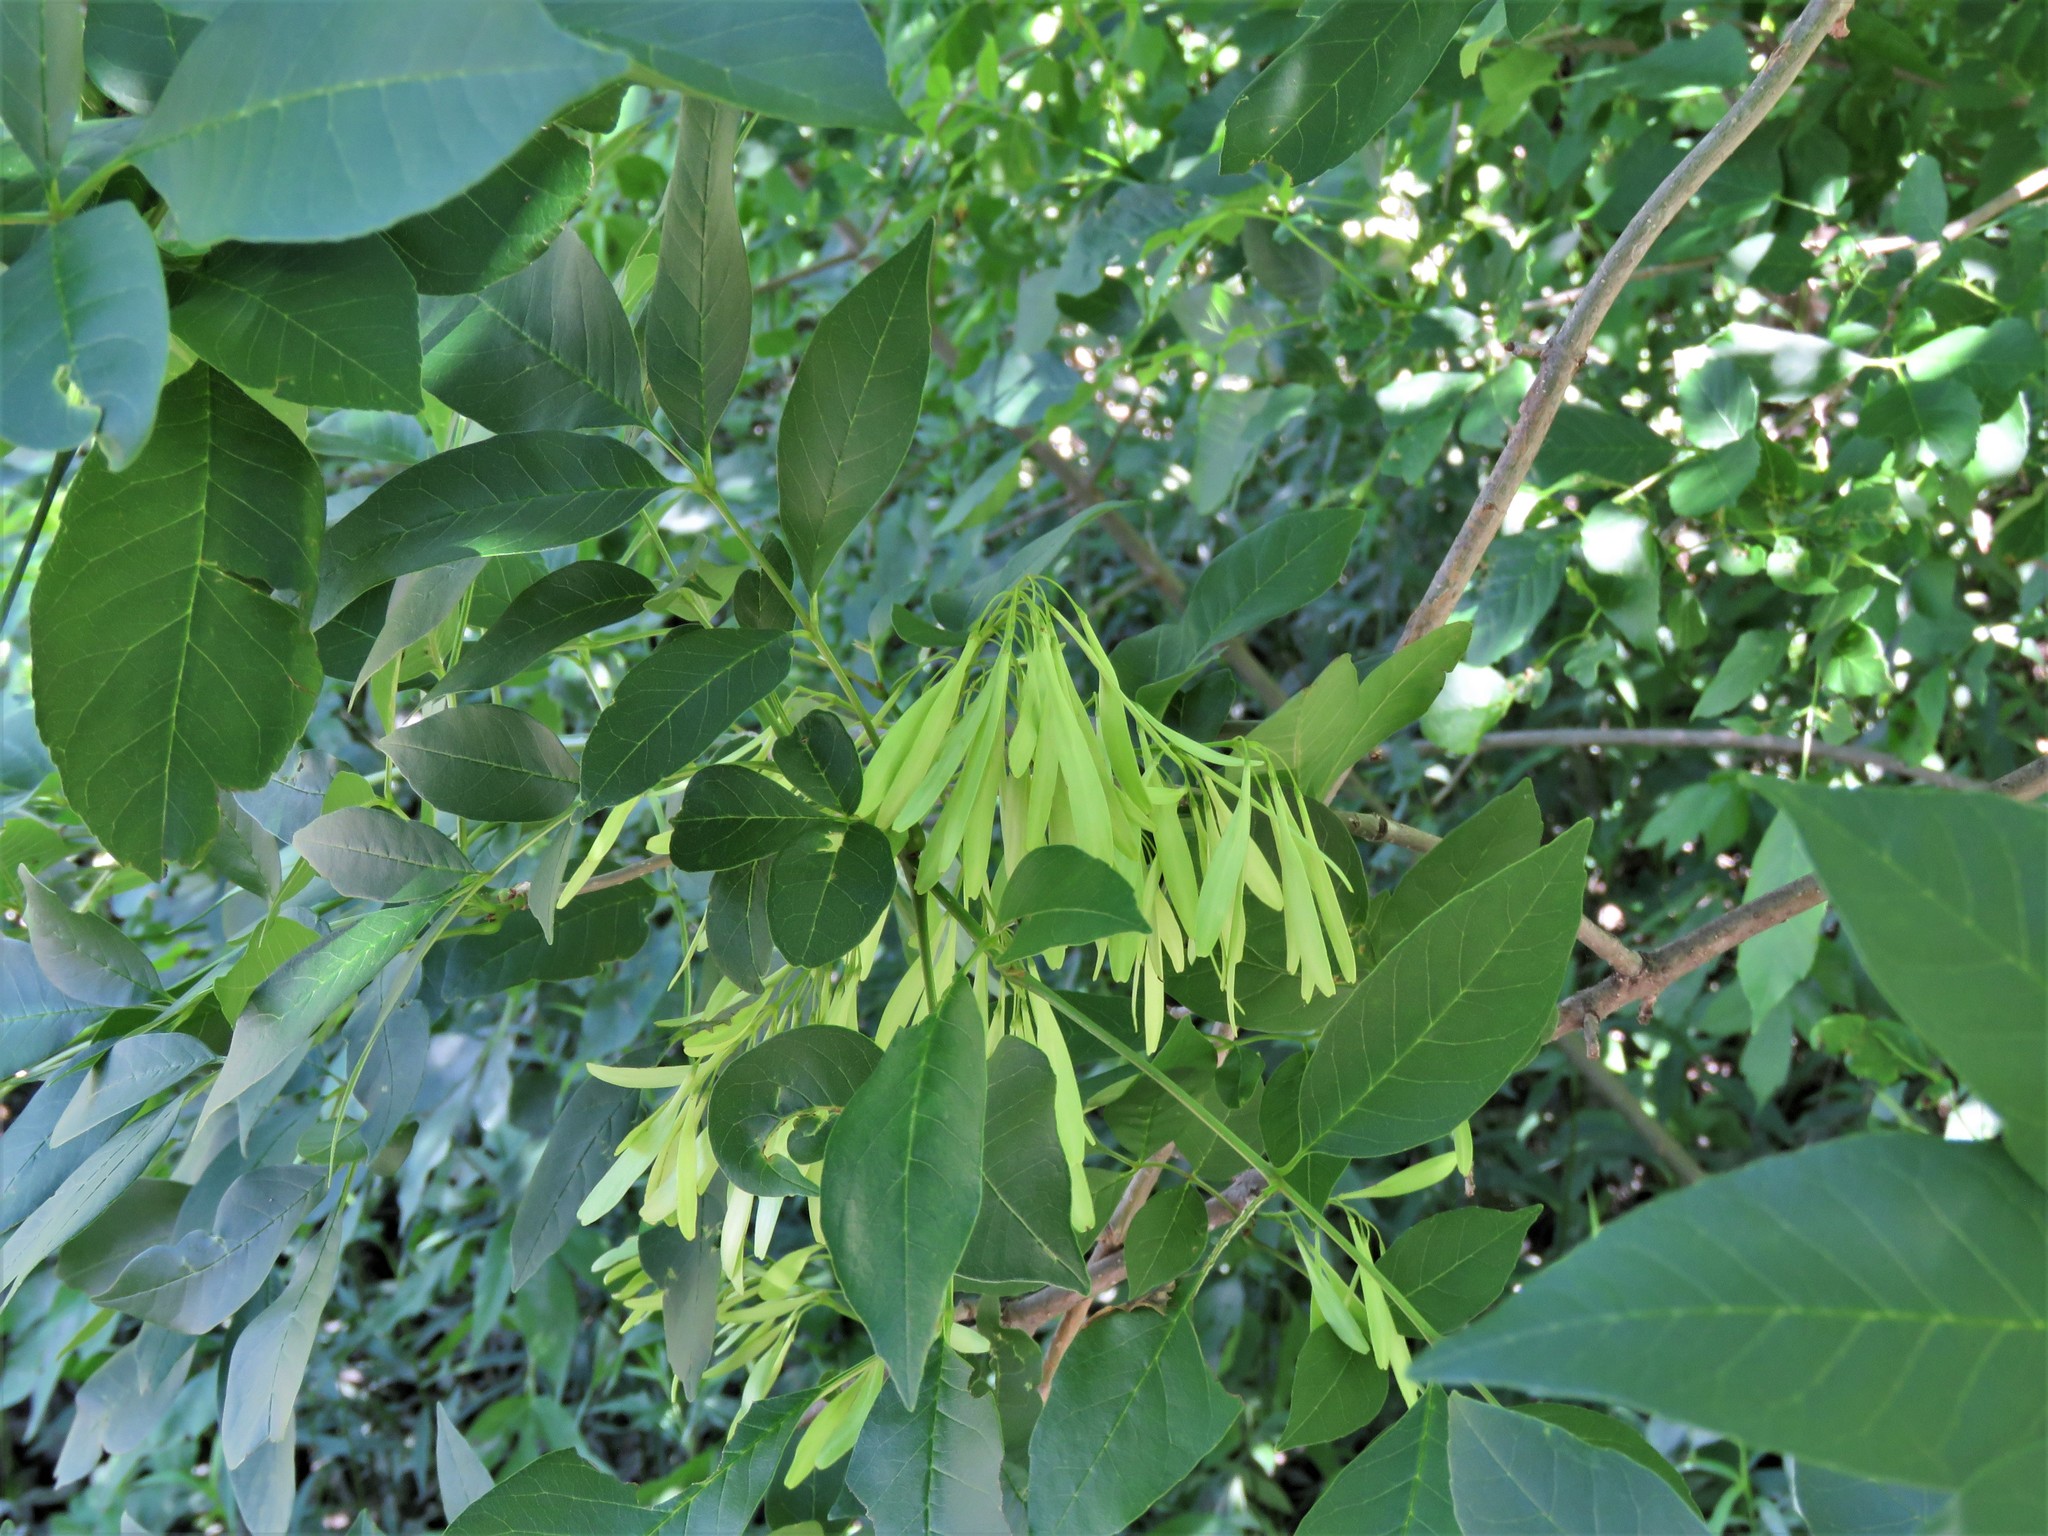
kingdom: Plantae
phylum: Tracheophyta
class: Magnoliopsida
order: Lamiales
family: Oleaceae
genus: Fraxinus
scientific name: Fraxinus pennsylvanica
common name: Green ash
